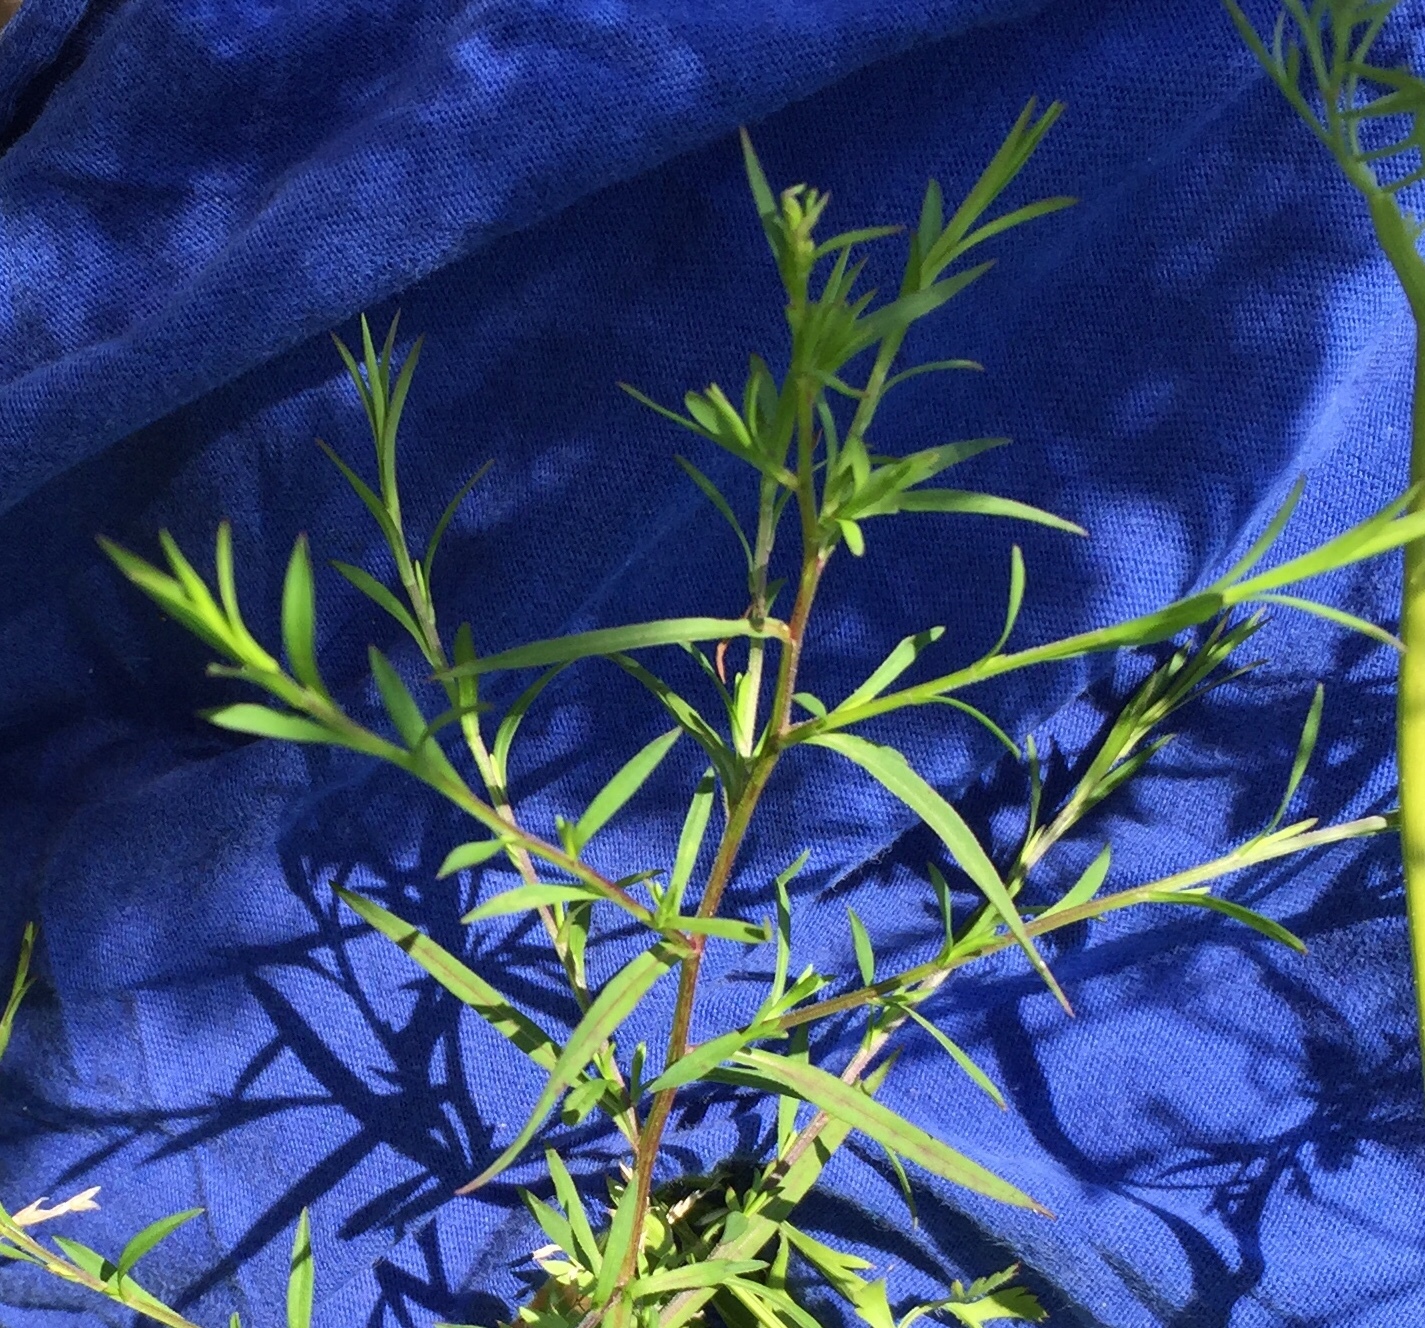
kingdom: Plantae
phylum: Tracheophyta
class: Magnoliopsida
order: Apiales
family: Apiaceae
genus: Daucus
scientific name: Daucus carota
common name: Wild carrot
